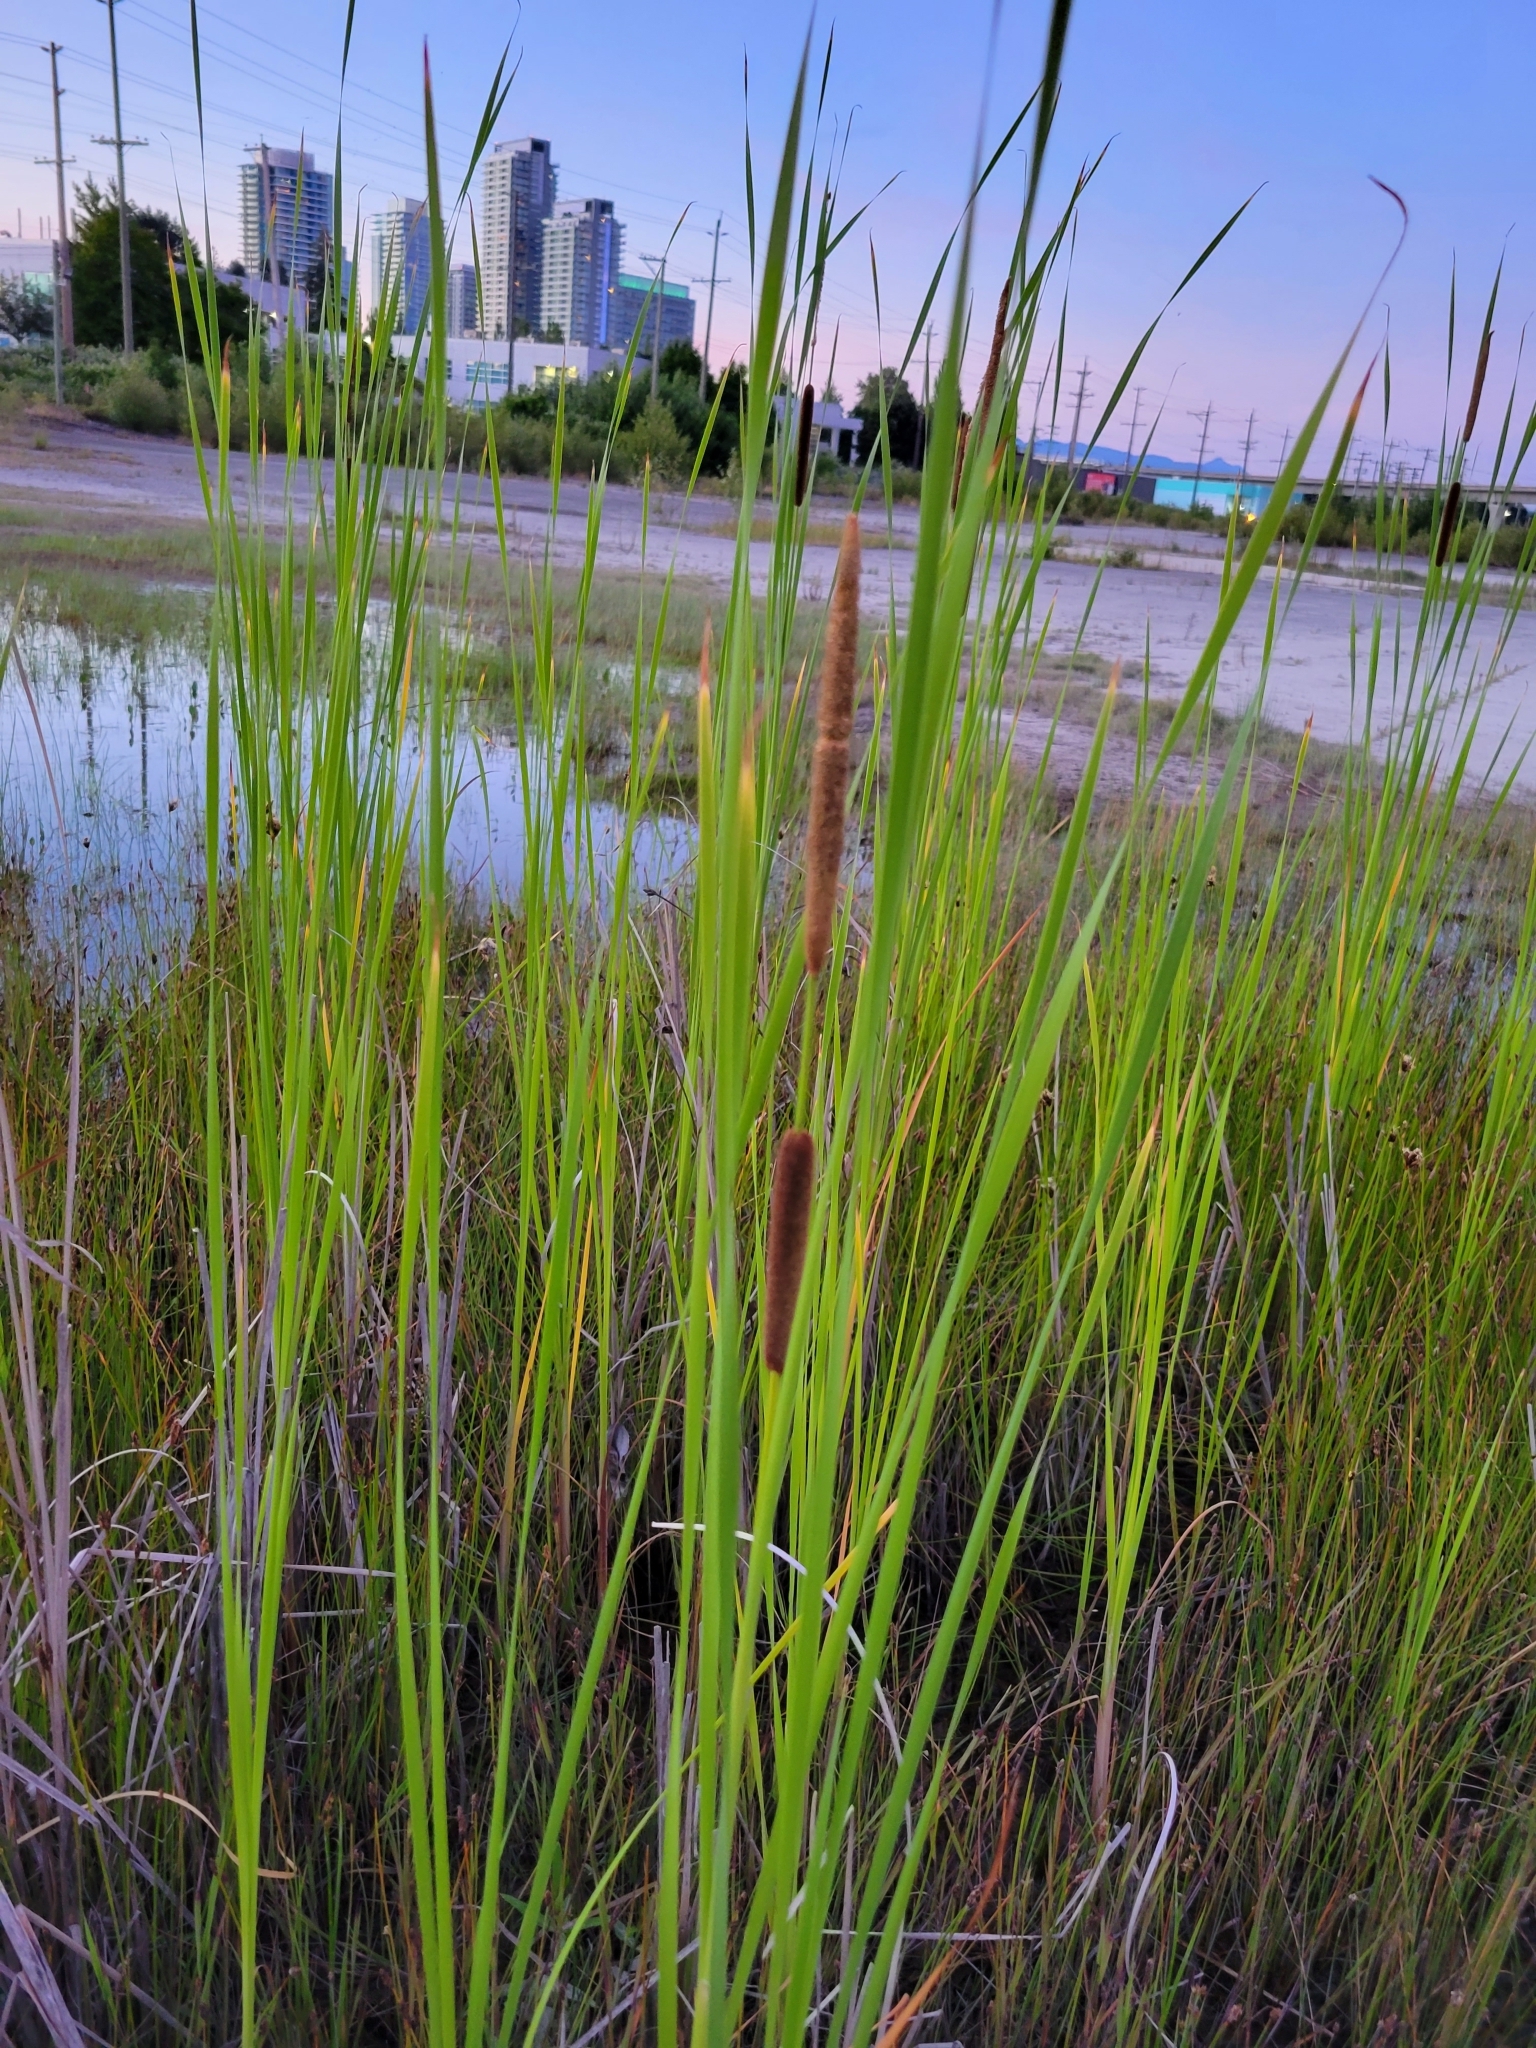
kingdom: Plantae
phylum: Tracheophyta
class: Liliopsida
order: Poales
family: Typhaceae
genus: Typha
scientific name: Typha angustifolia
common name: Lesser bulrush
